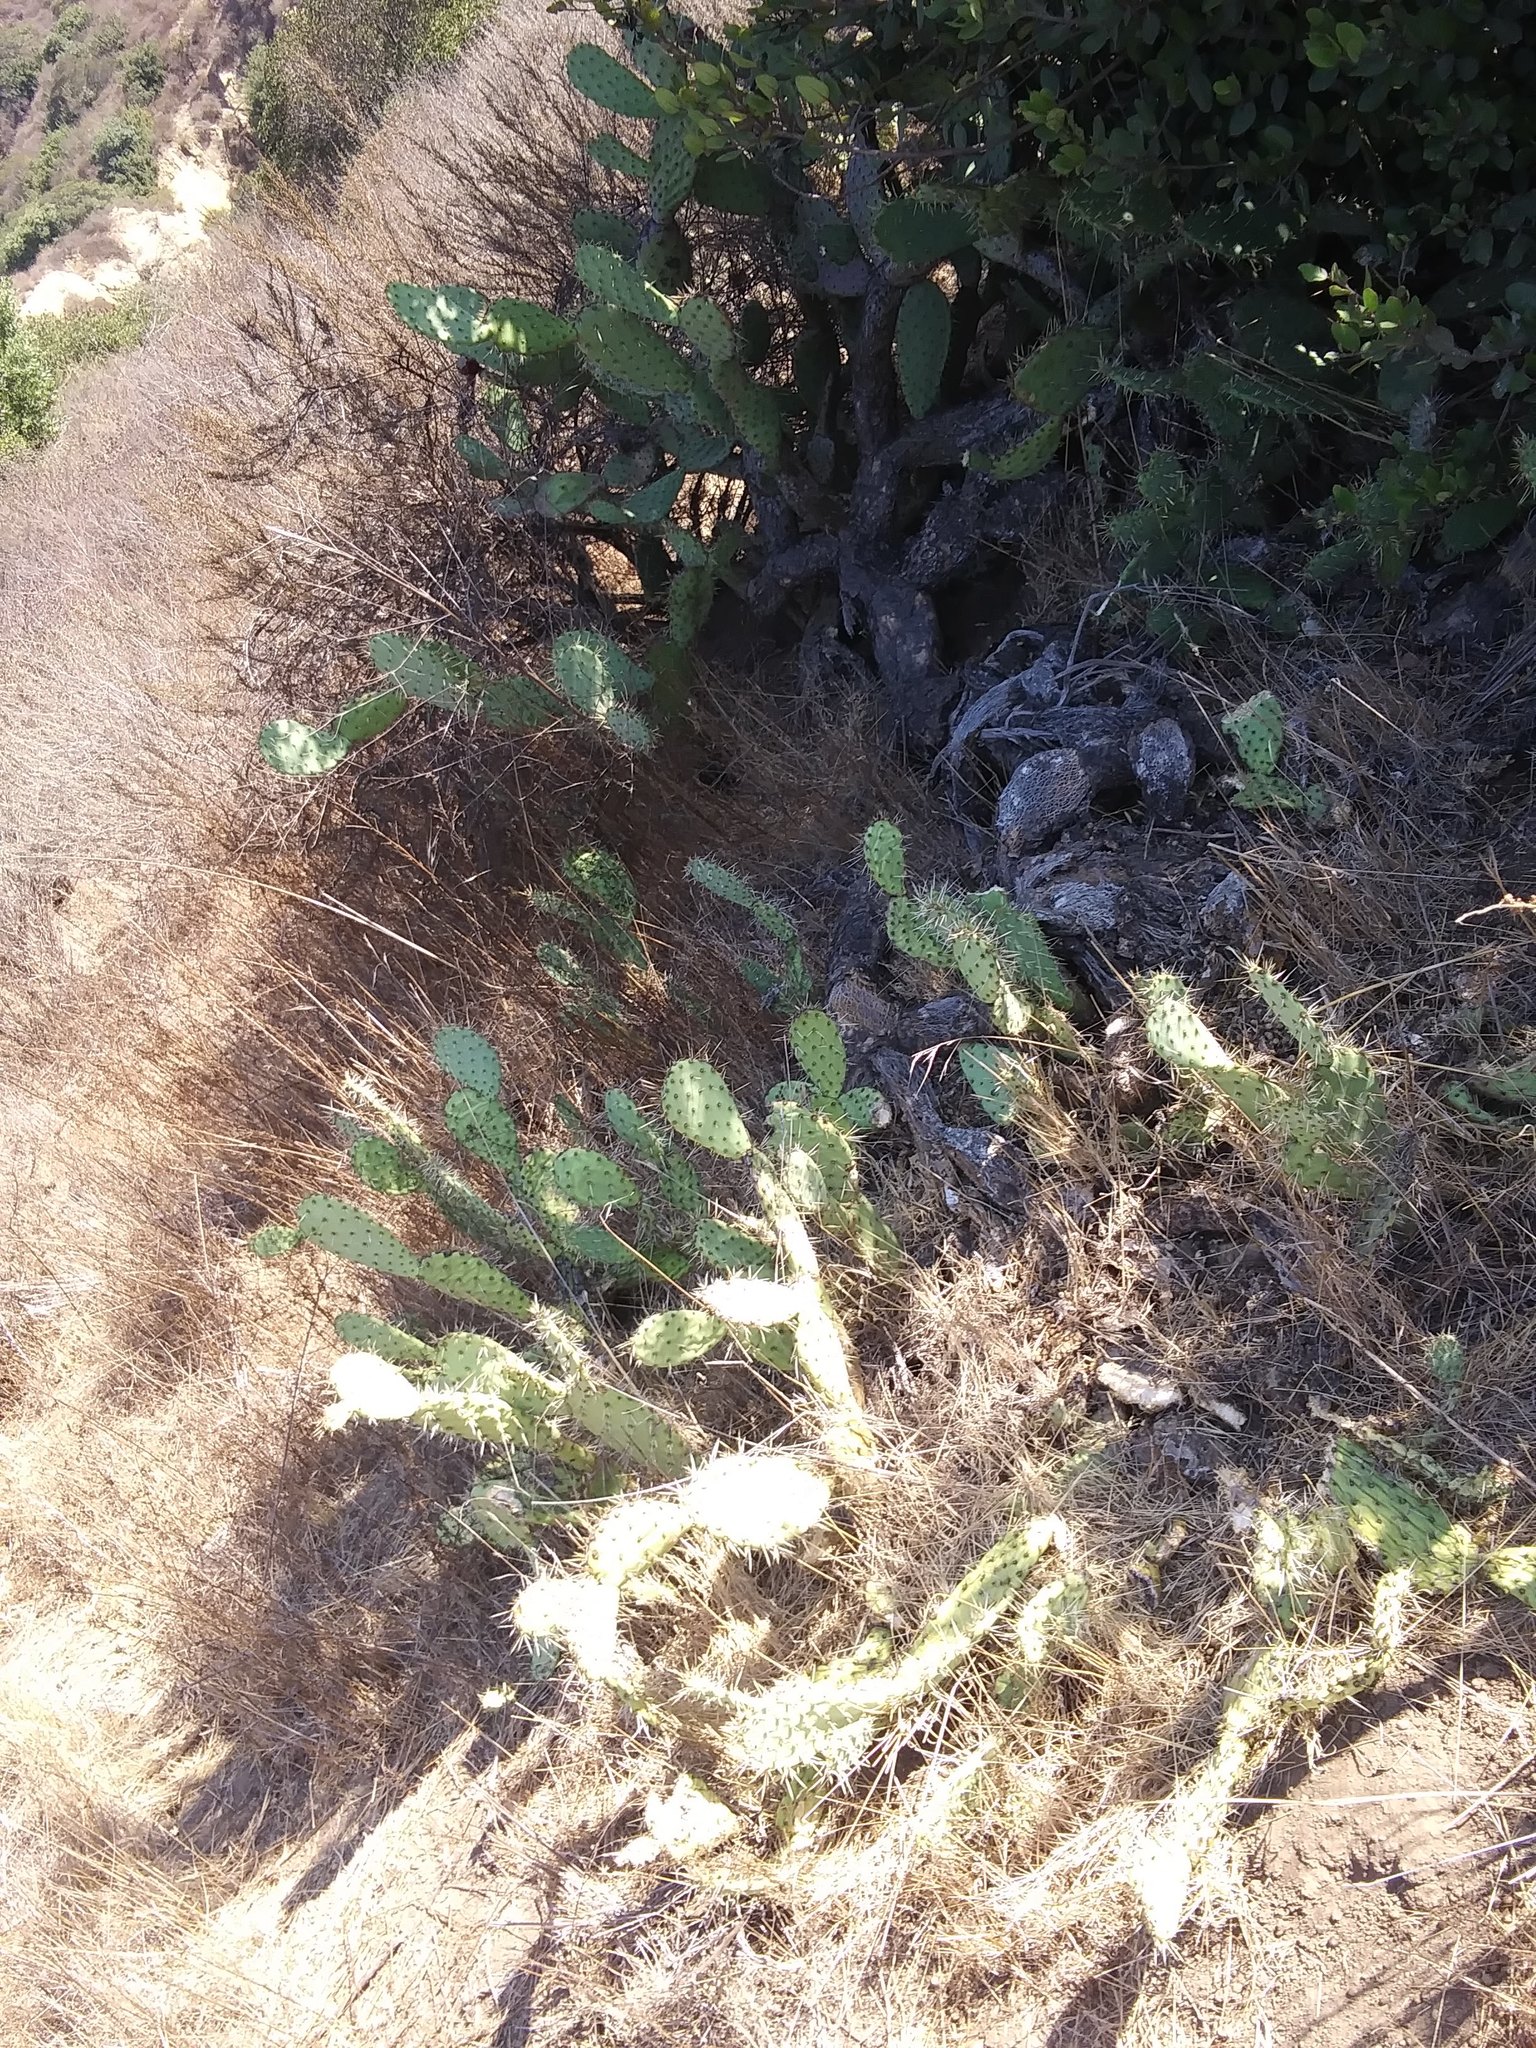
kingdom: Plantae
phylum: Tracheophyta
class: Magnoliopsida
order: Caryophyllales
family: Cactaceae
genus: Opuntia
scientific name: Opuntia littoralis
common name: Coastal prickly-pear
